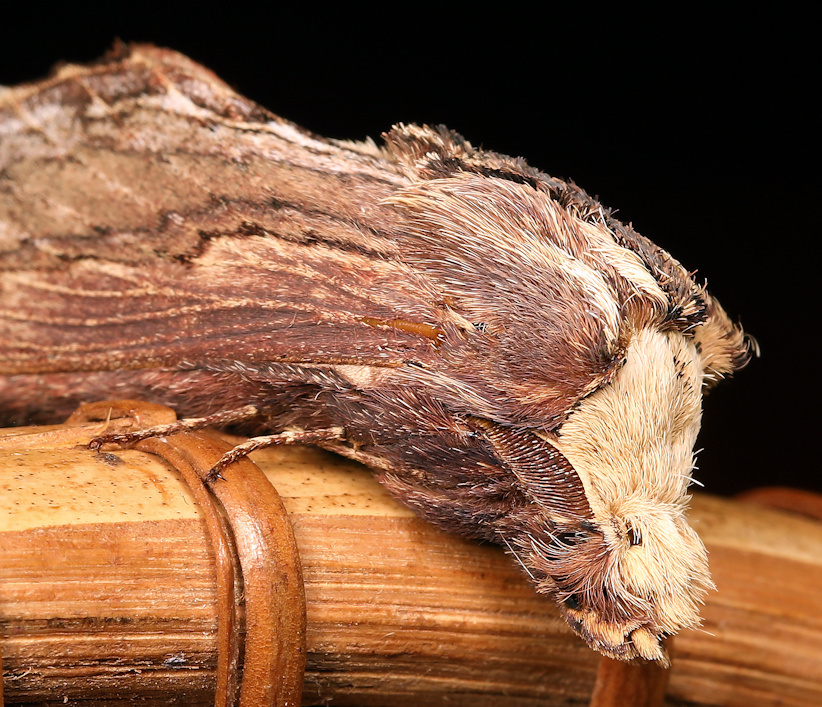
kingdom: Animalia
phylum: Arthropoda
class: Insecta
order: Lepidoptera
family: Lasiocampidae
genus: Pachypasa
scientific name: Pachypasa truncata
